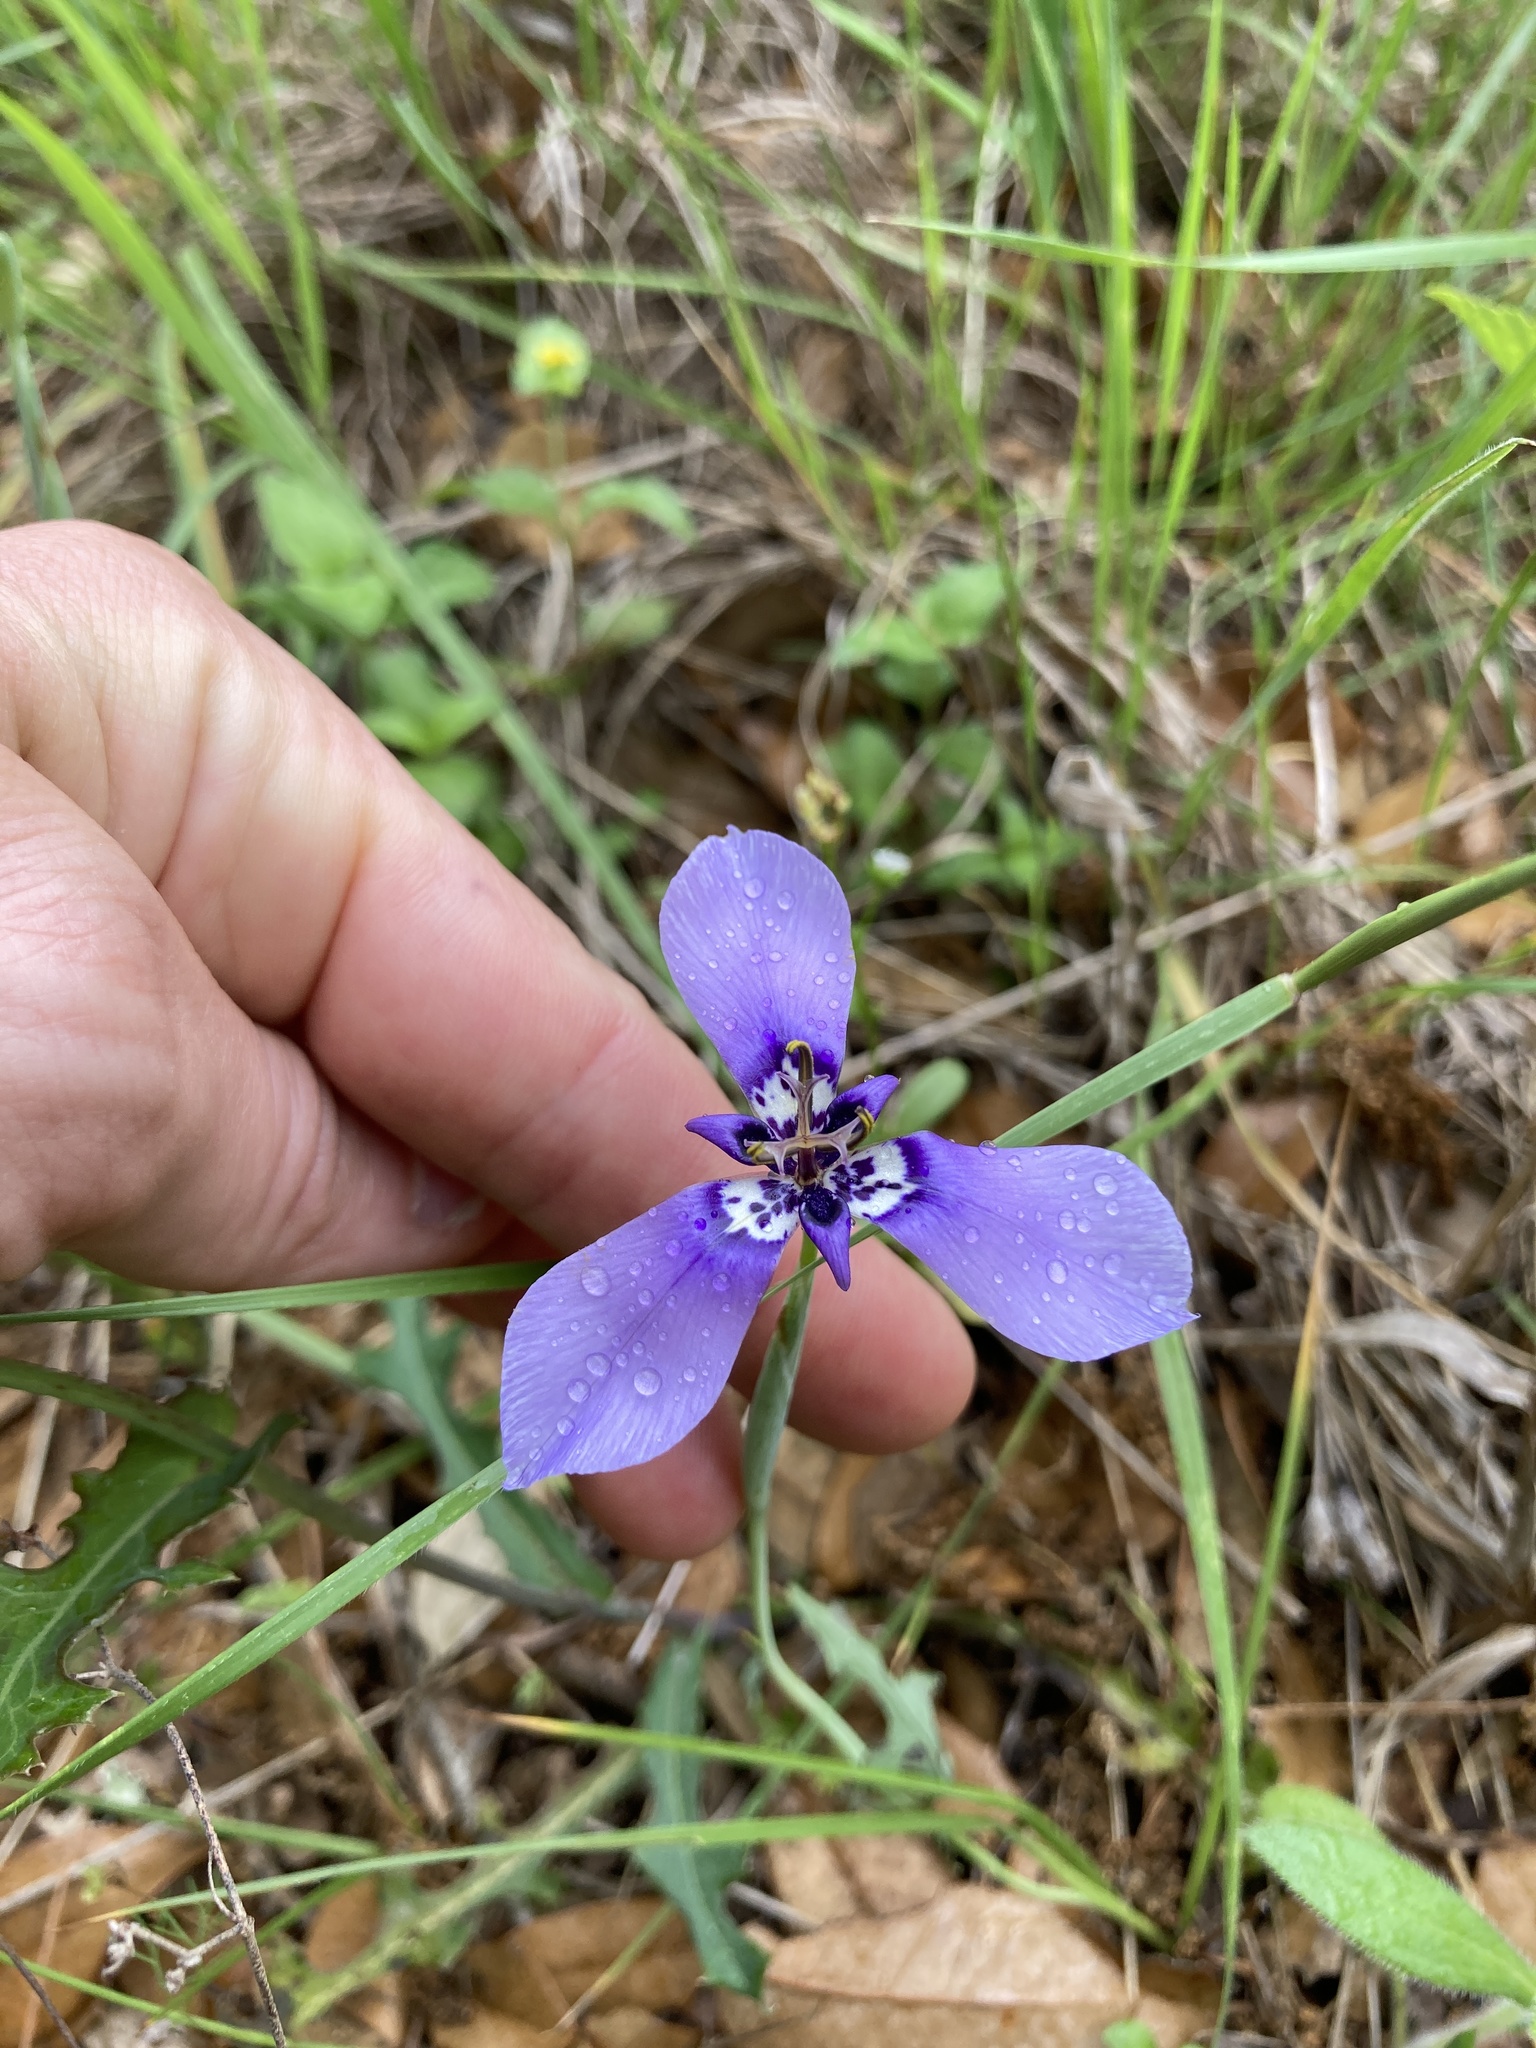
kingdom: Plantae
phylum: Tracheophyta
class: Liliopsida
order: Asparagales
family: Iridaceae
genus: Herbertia
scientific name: Herbertia lahue
